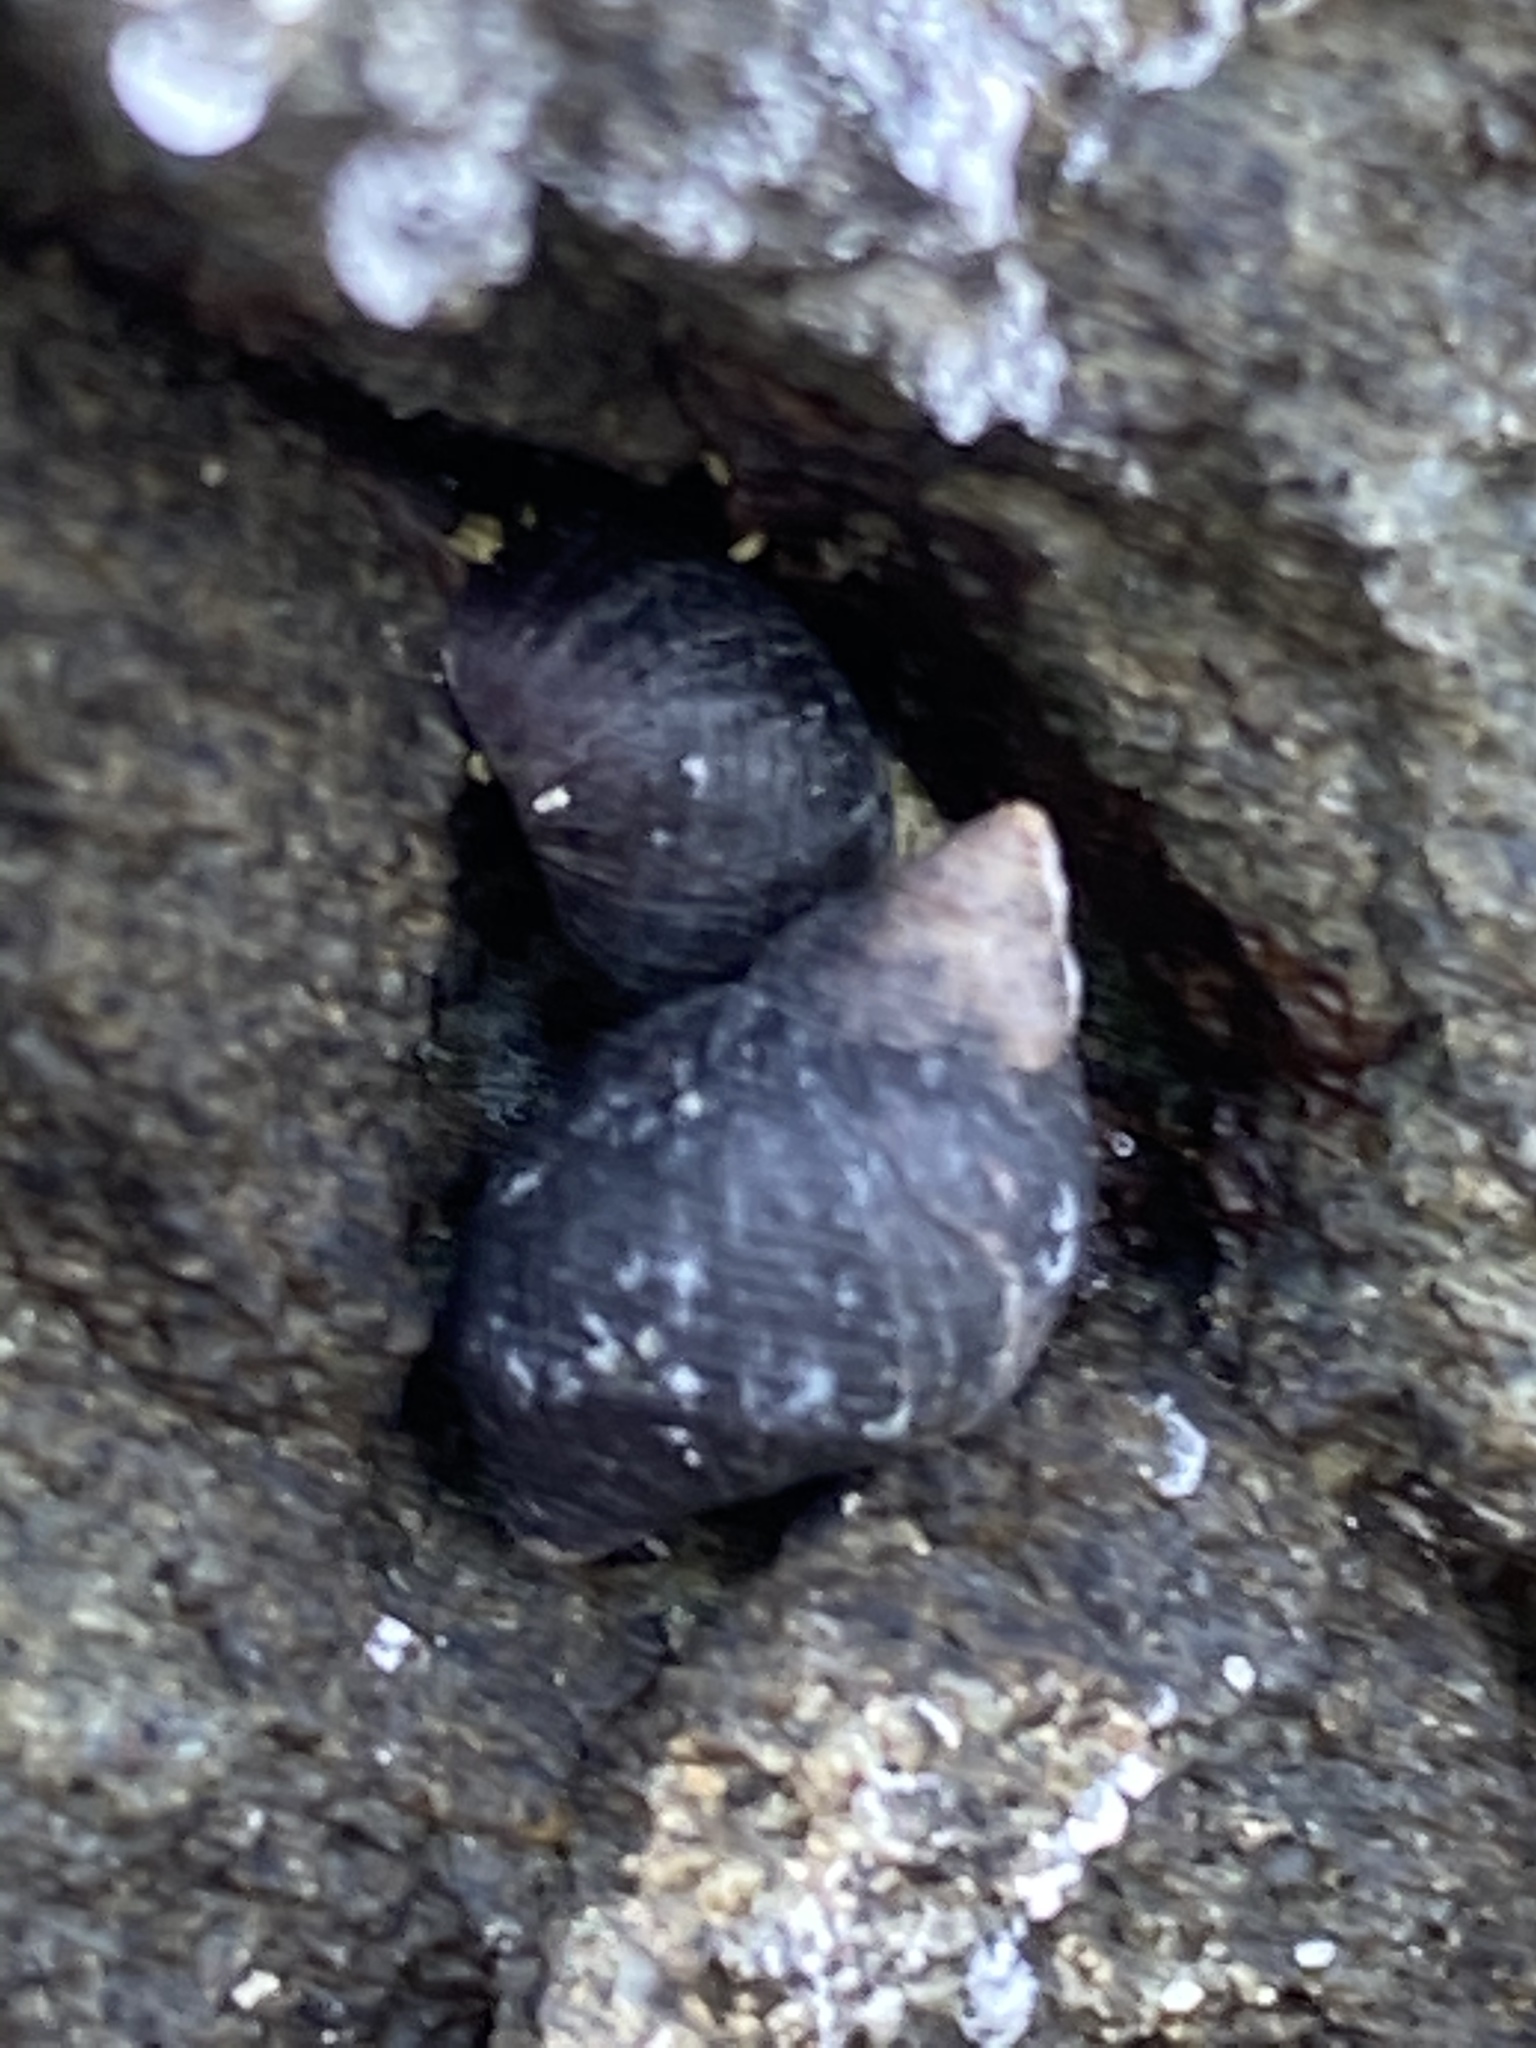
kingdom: Animalia
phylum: Mollusca
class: Gastropoda
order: Littorinimorpha
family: Littorinidae
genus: Littorina
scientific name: Littorina scutulata
